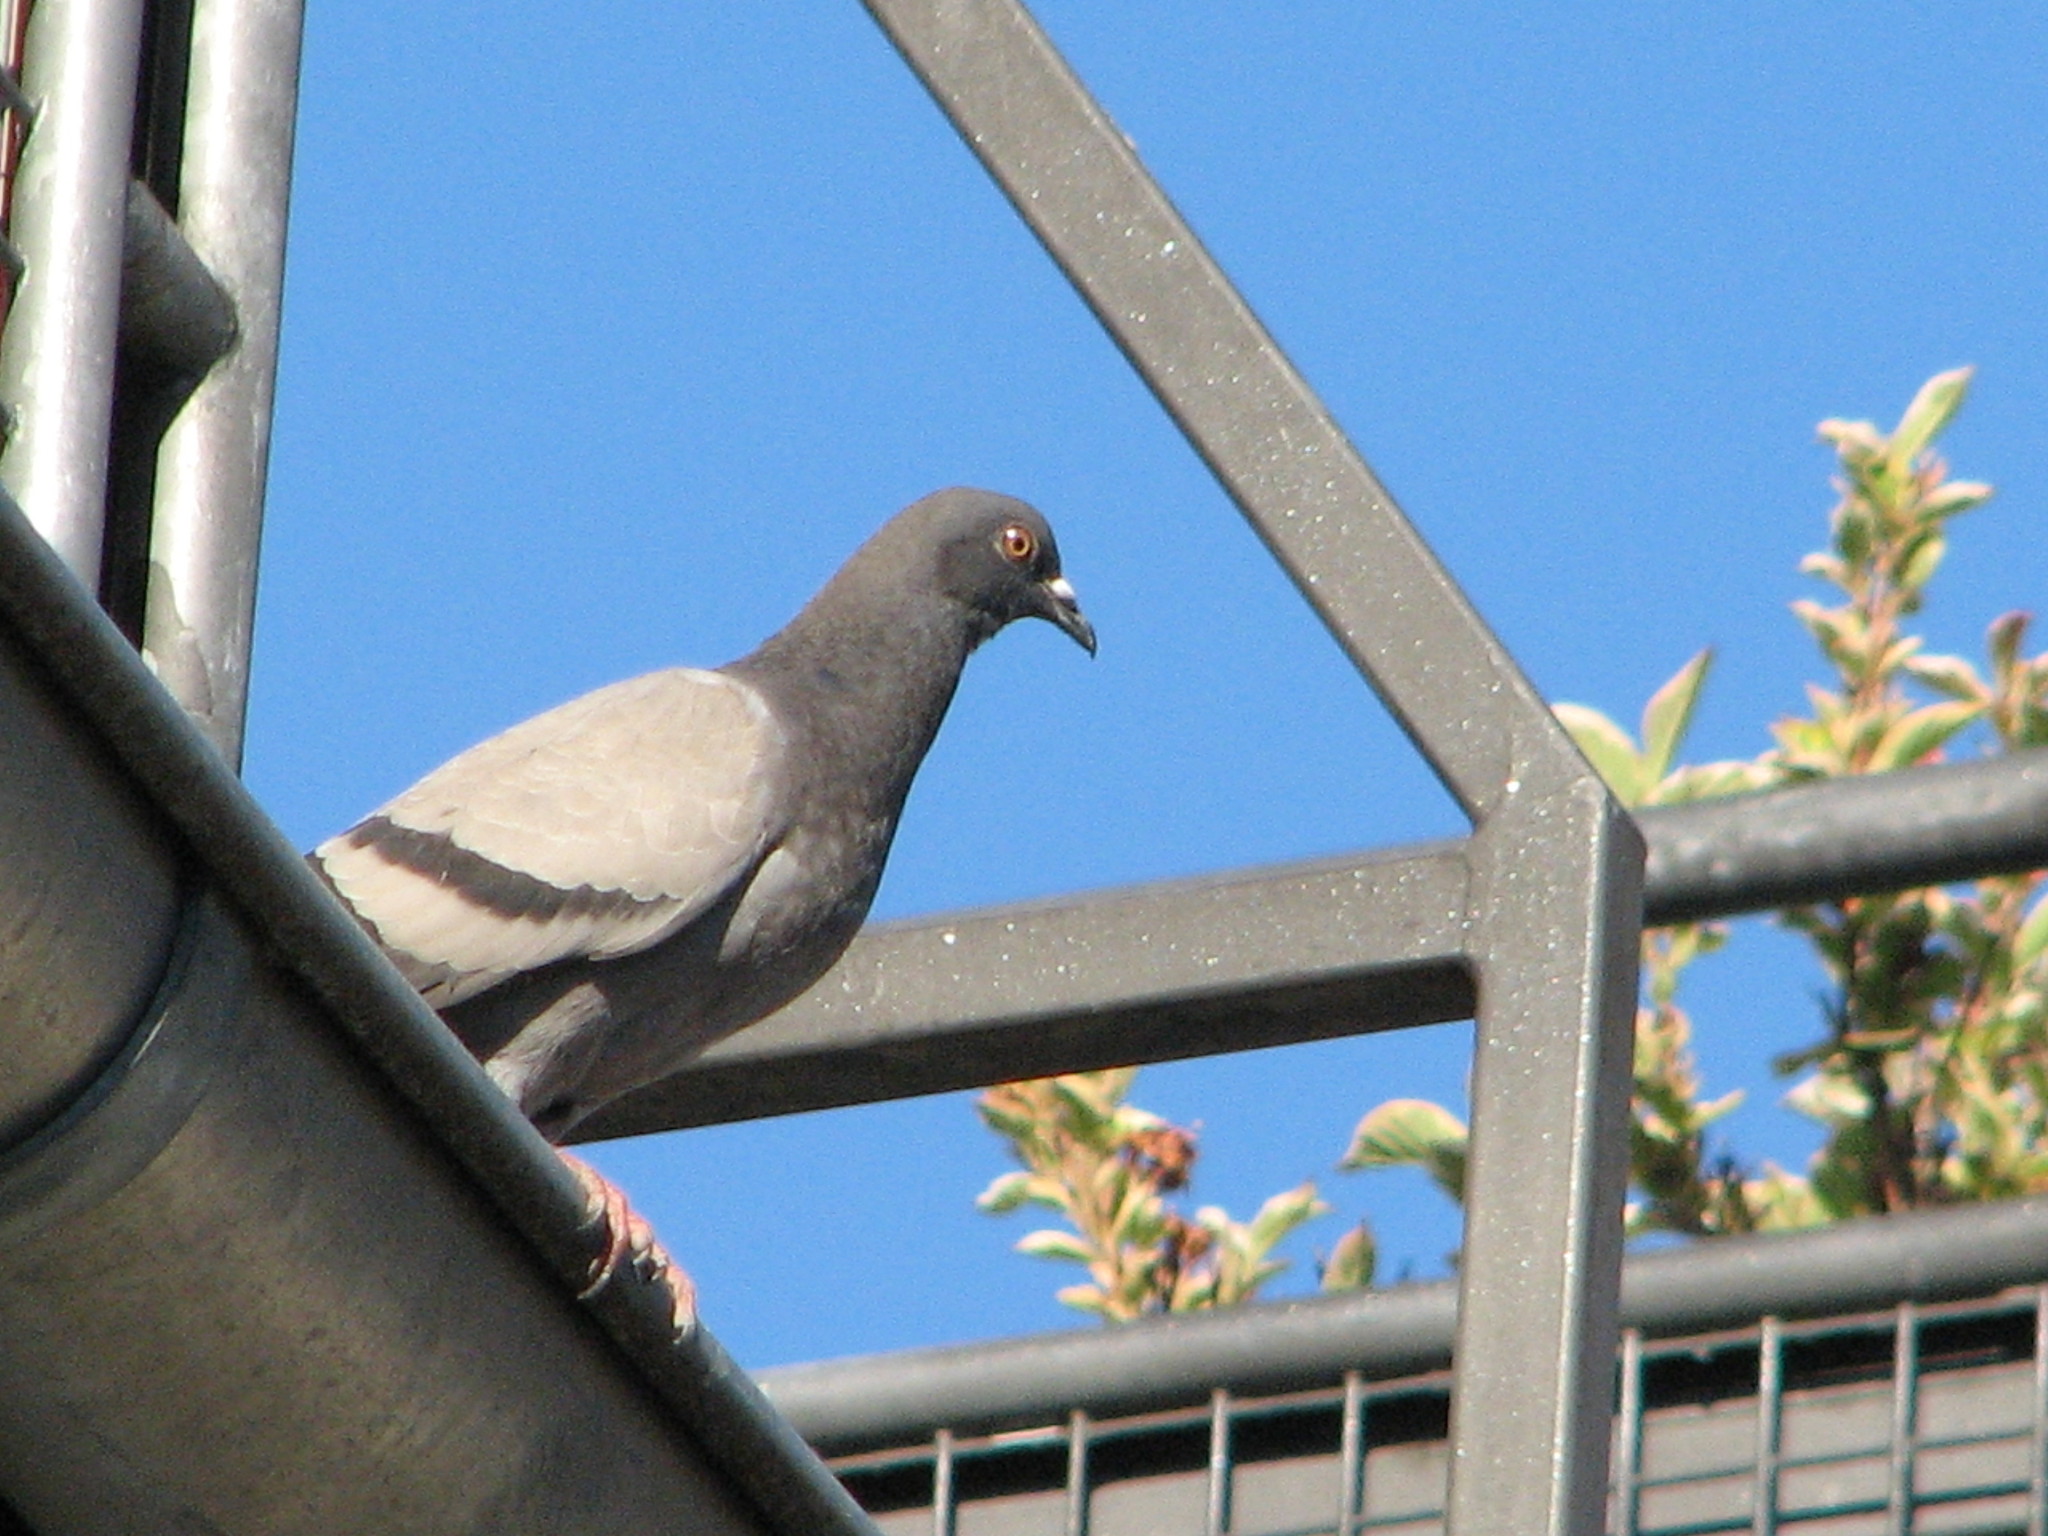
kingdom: Animalia
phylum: Chordata
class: Aves
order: Columbiformes
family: Columbidae
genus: Columba
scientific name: Columba livia
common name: Rock pigeon
